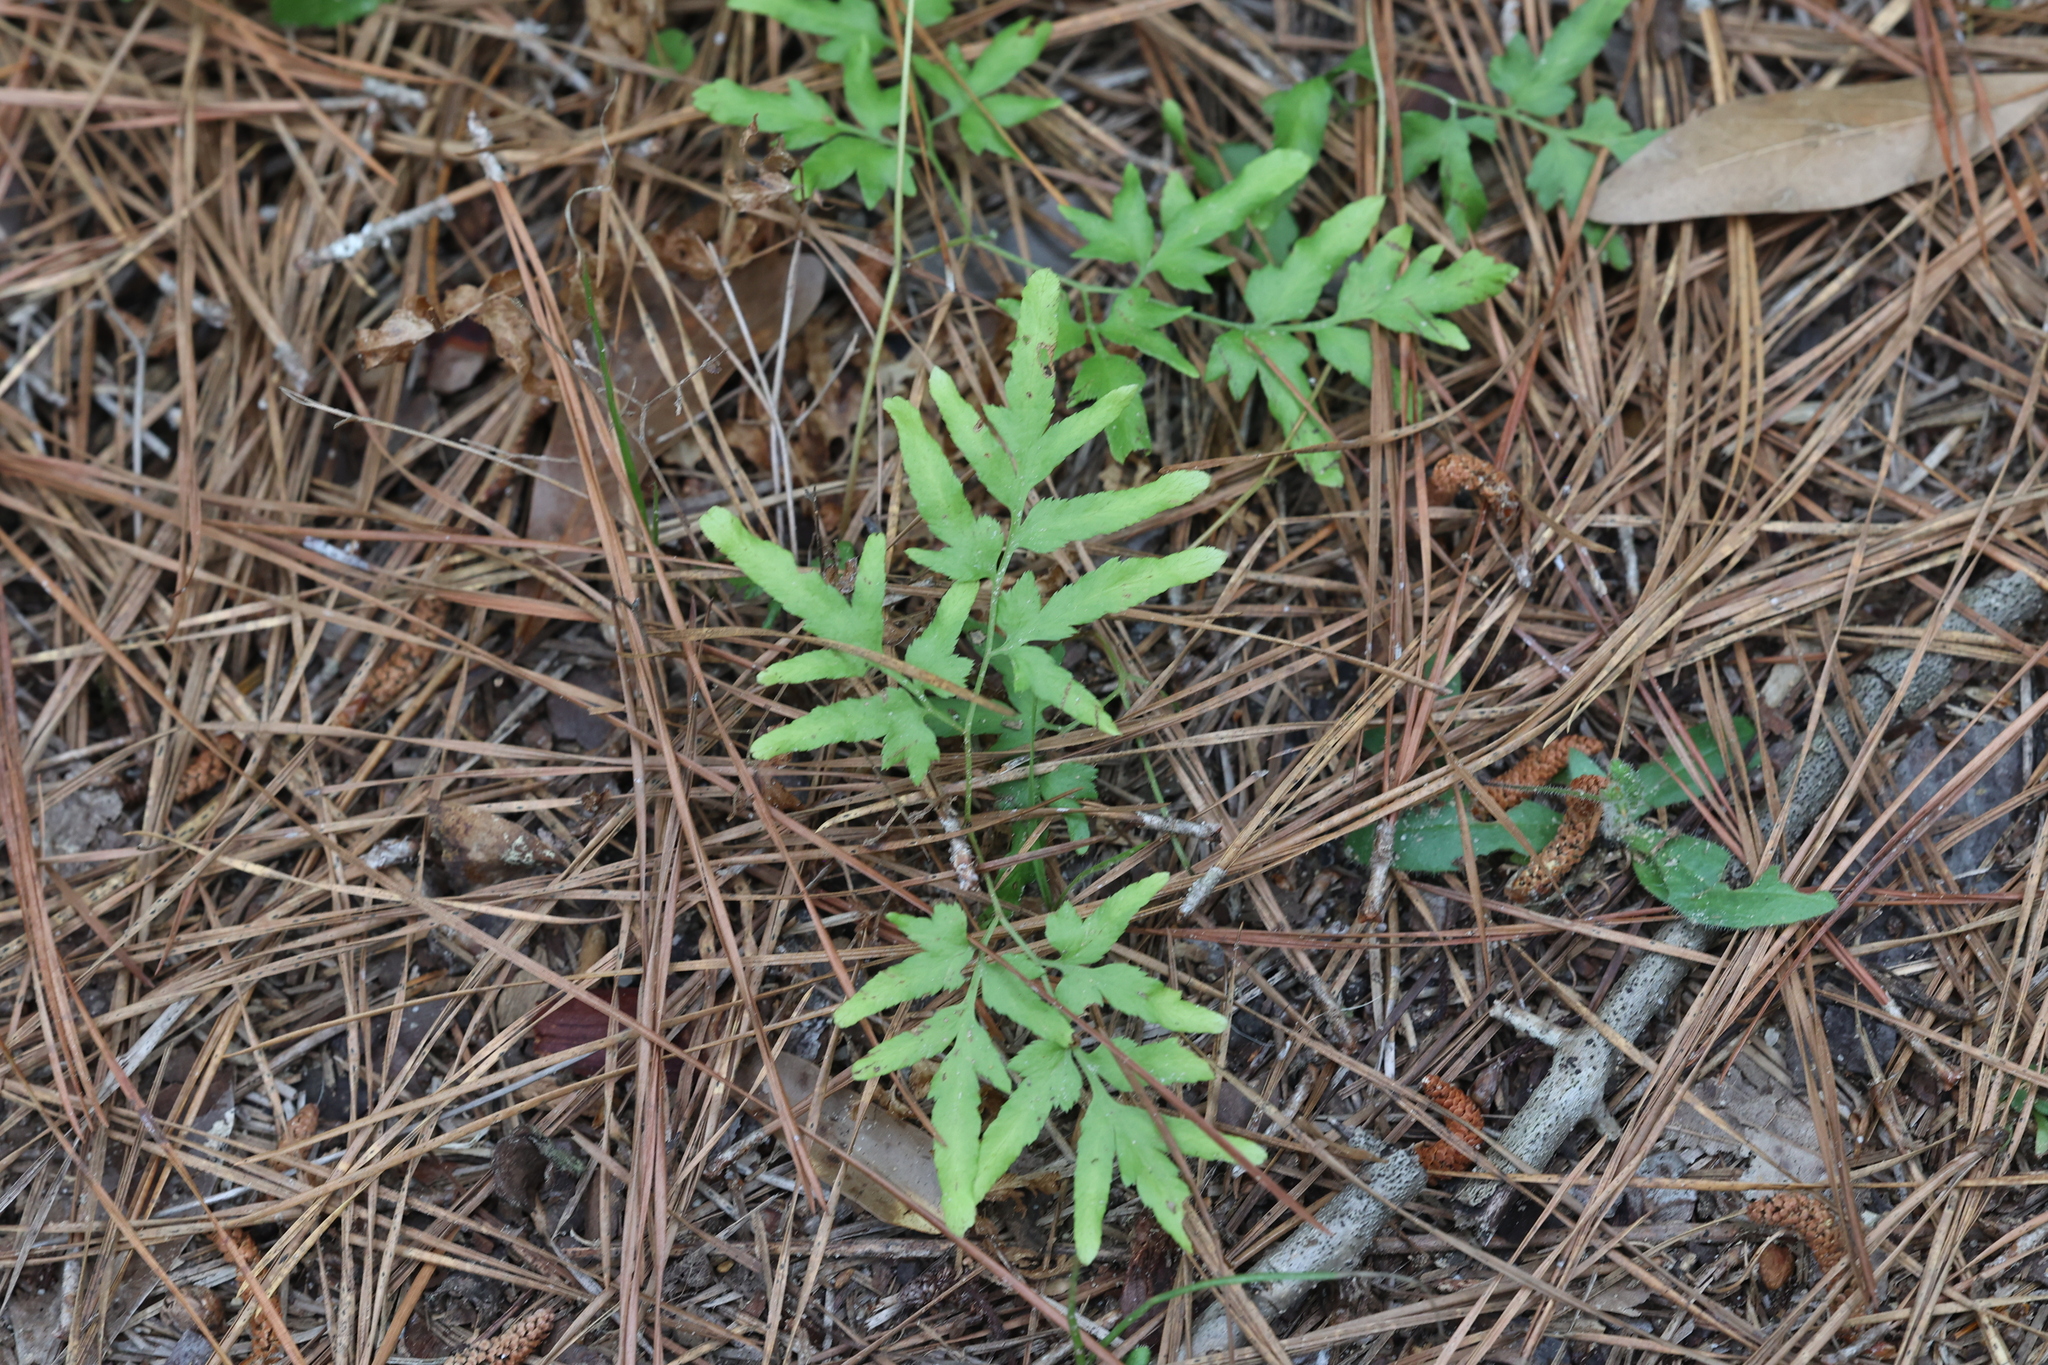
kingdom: Plantae
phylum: Tracheophyta
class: Polypodiopsida
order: Schizaeales
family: Lygodiaceae
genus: Lygodium
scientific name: Lygodium japonicum
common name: Japanese climbing fern
